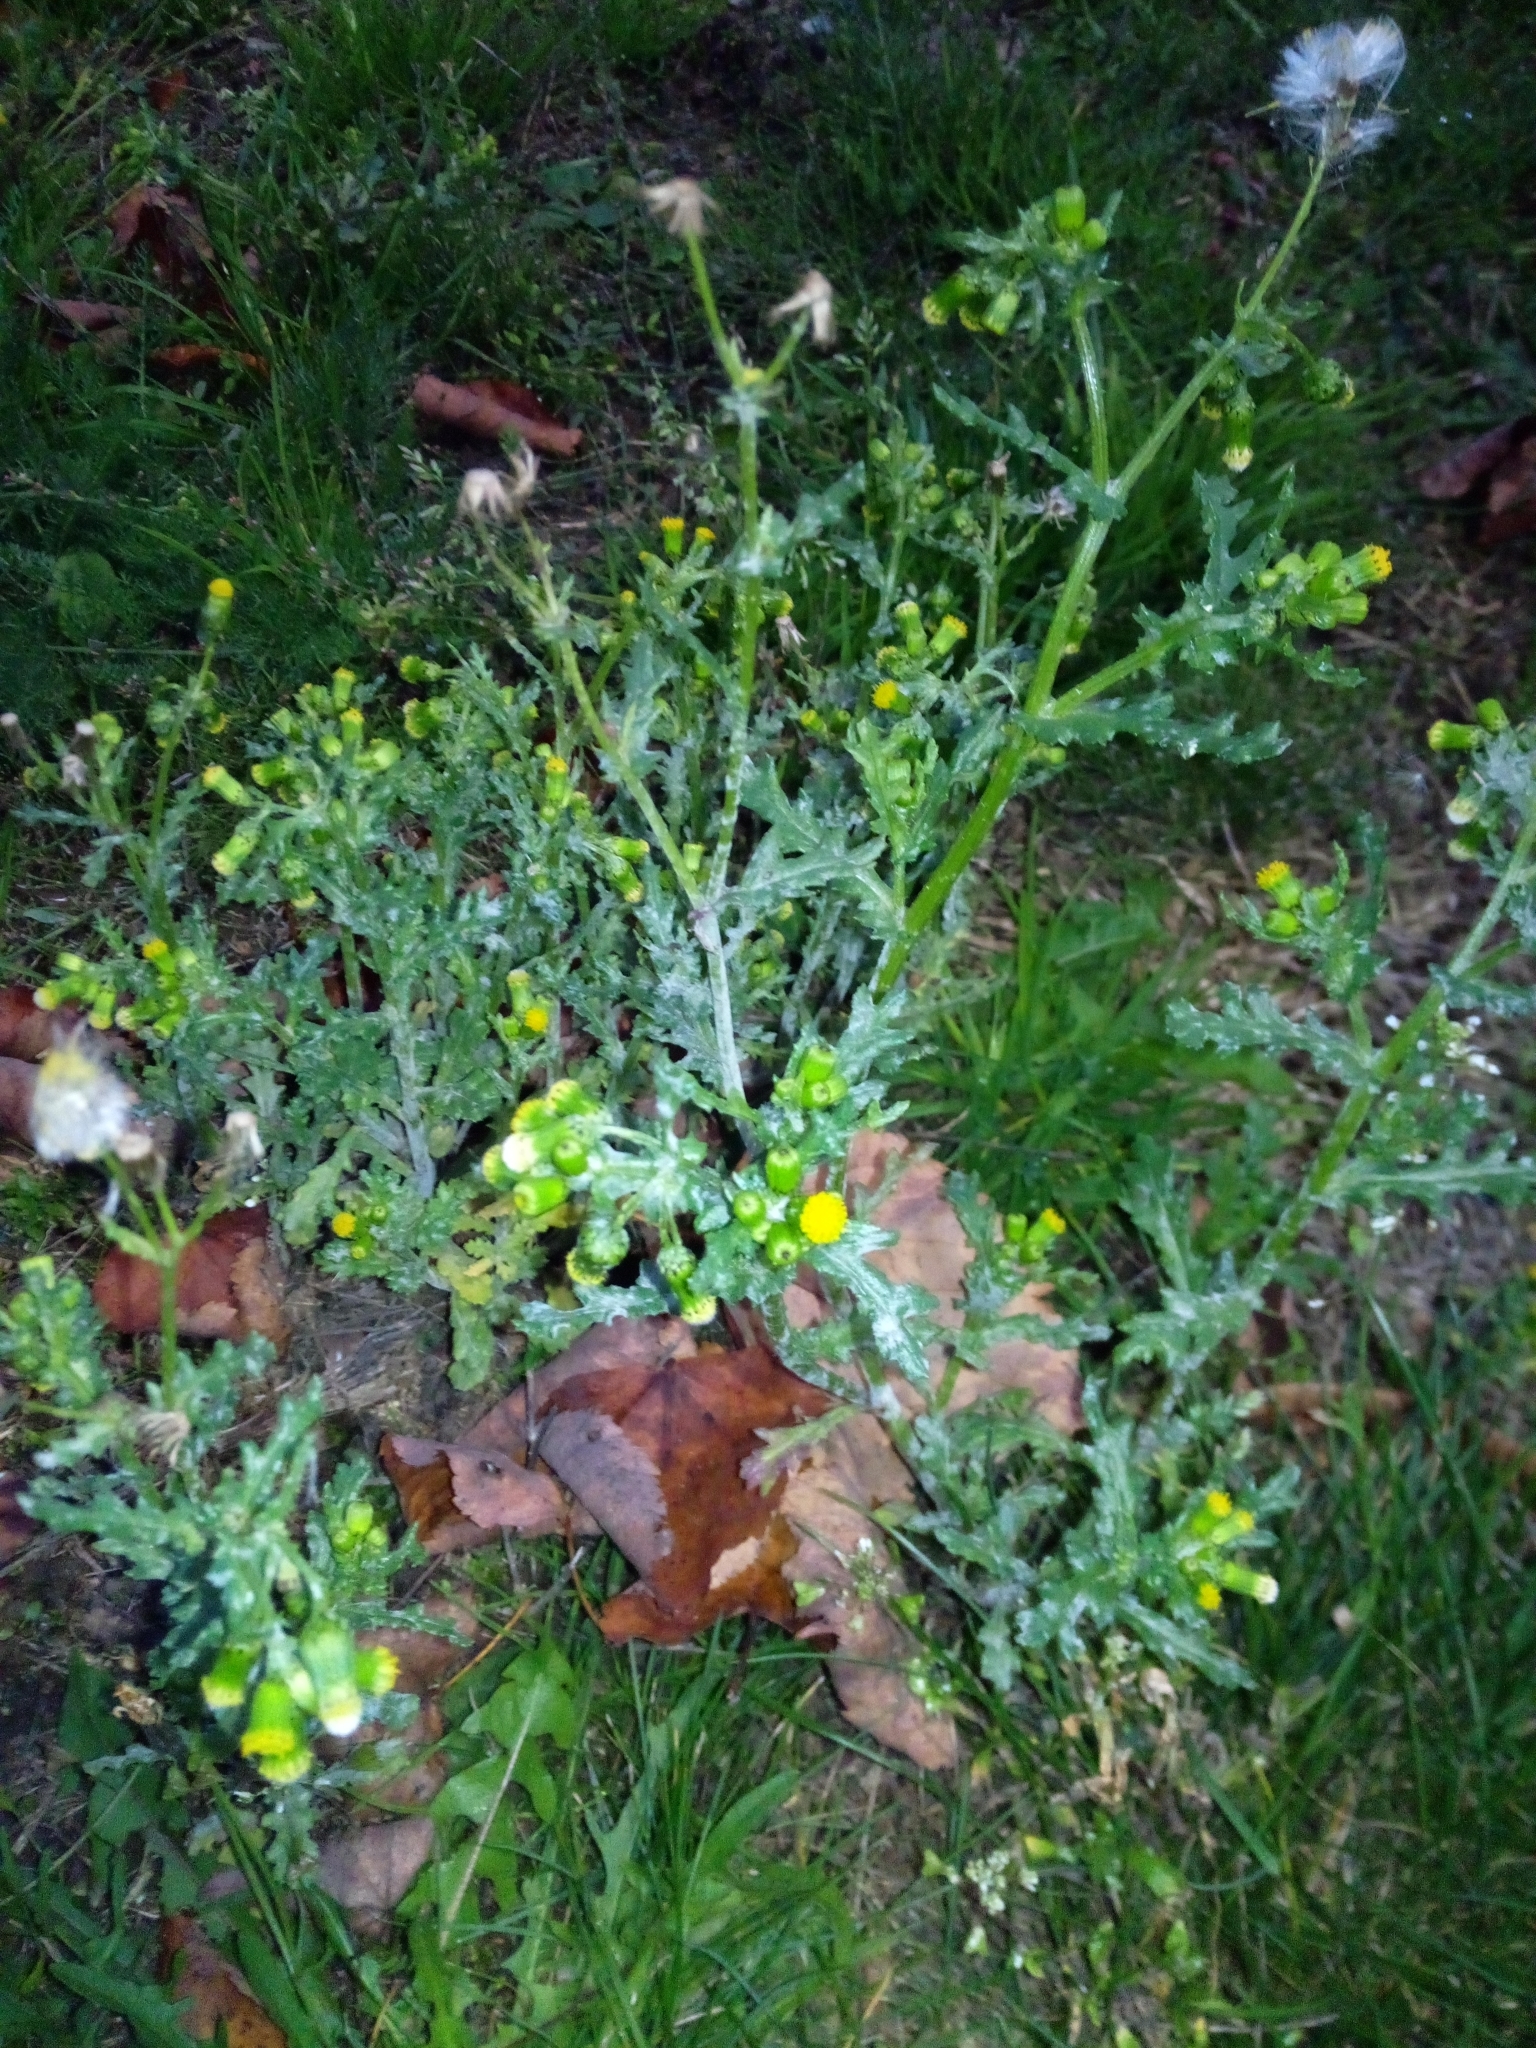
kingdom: Plantae
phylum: Tracheophyta
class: Magnoliopsida
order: Asterales
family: Asteraceae
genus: Senecio
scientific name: Senecio vulgaris
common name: Old-man-in-the-spring
